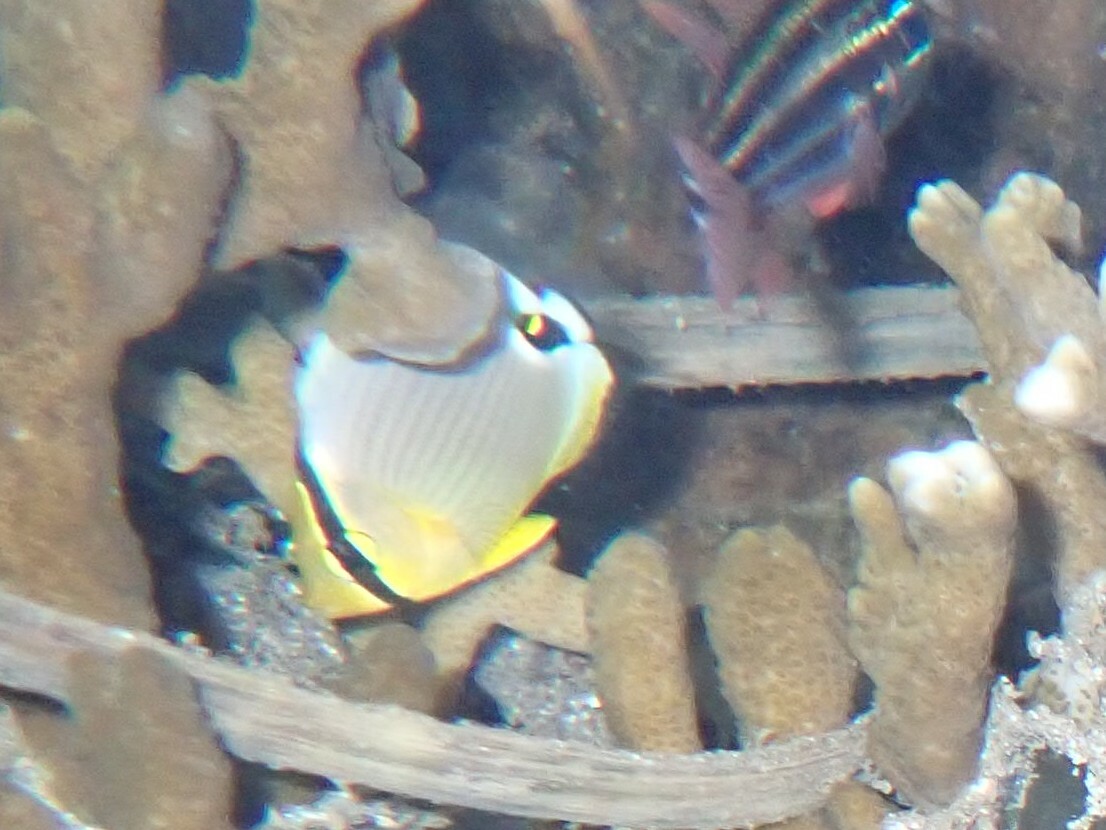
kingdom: Animalia
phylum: Chordata
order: Perciformes
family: Chaetodontidae
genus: Chaetodon
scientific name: Chaetodon lunulatus
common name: Redfin butterflyfish
